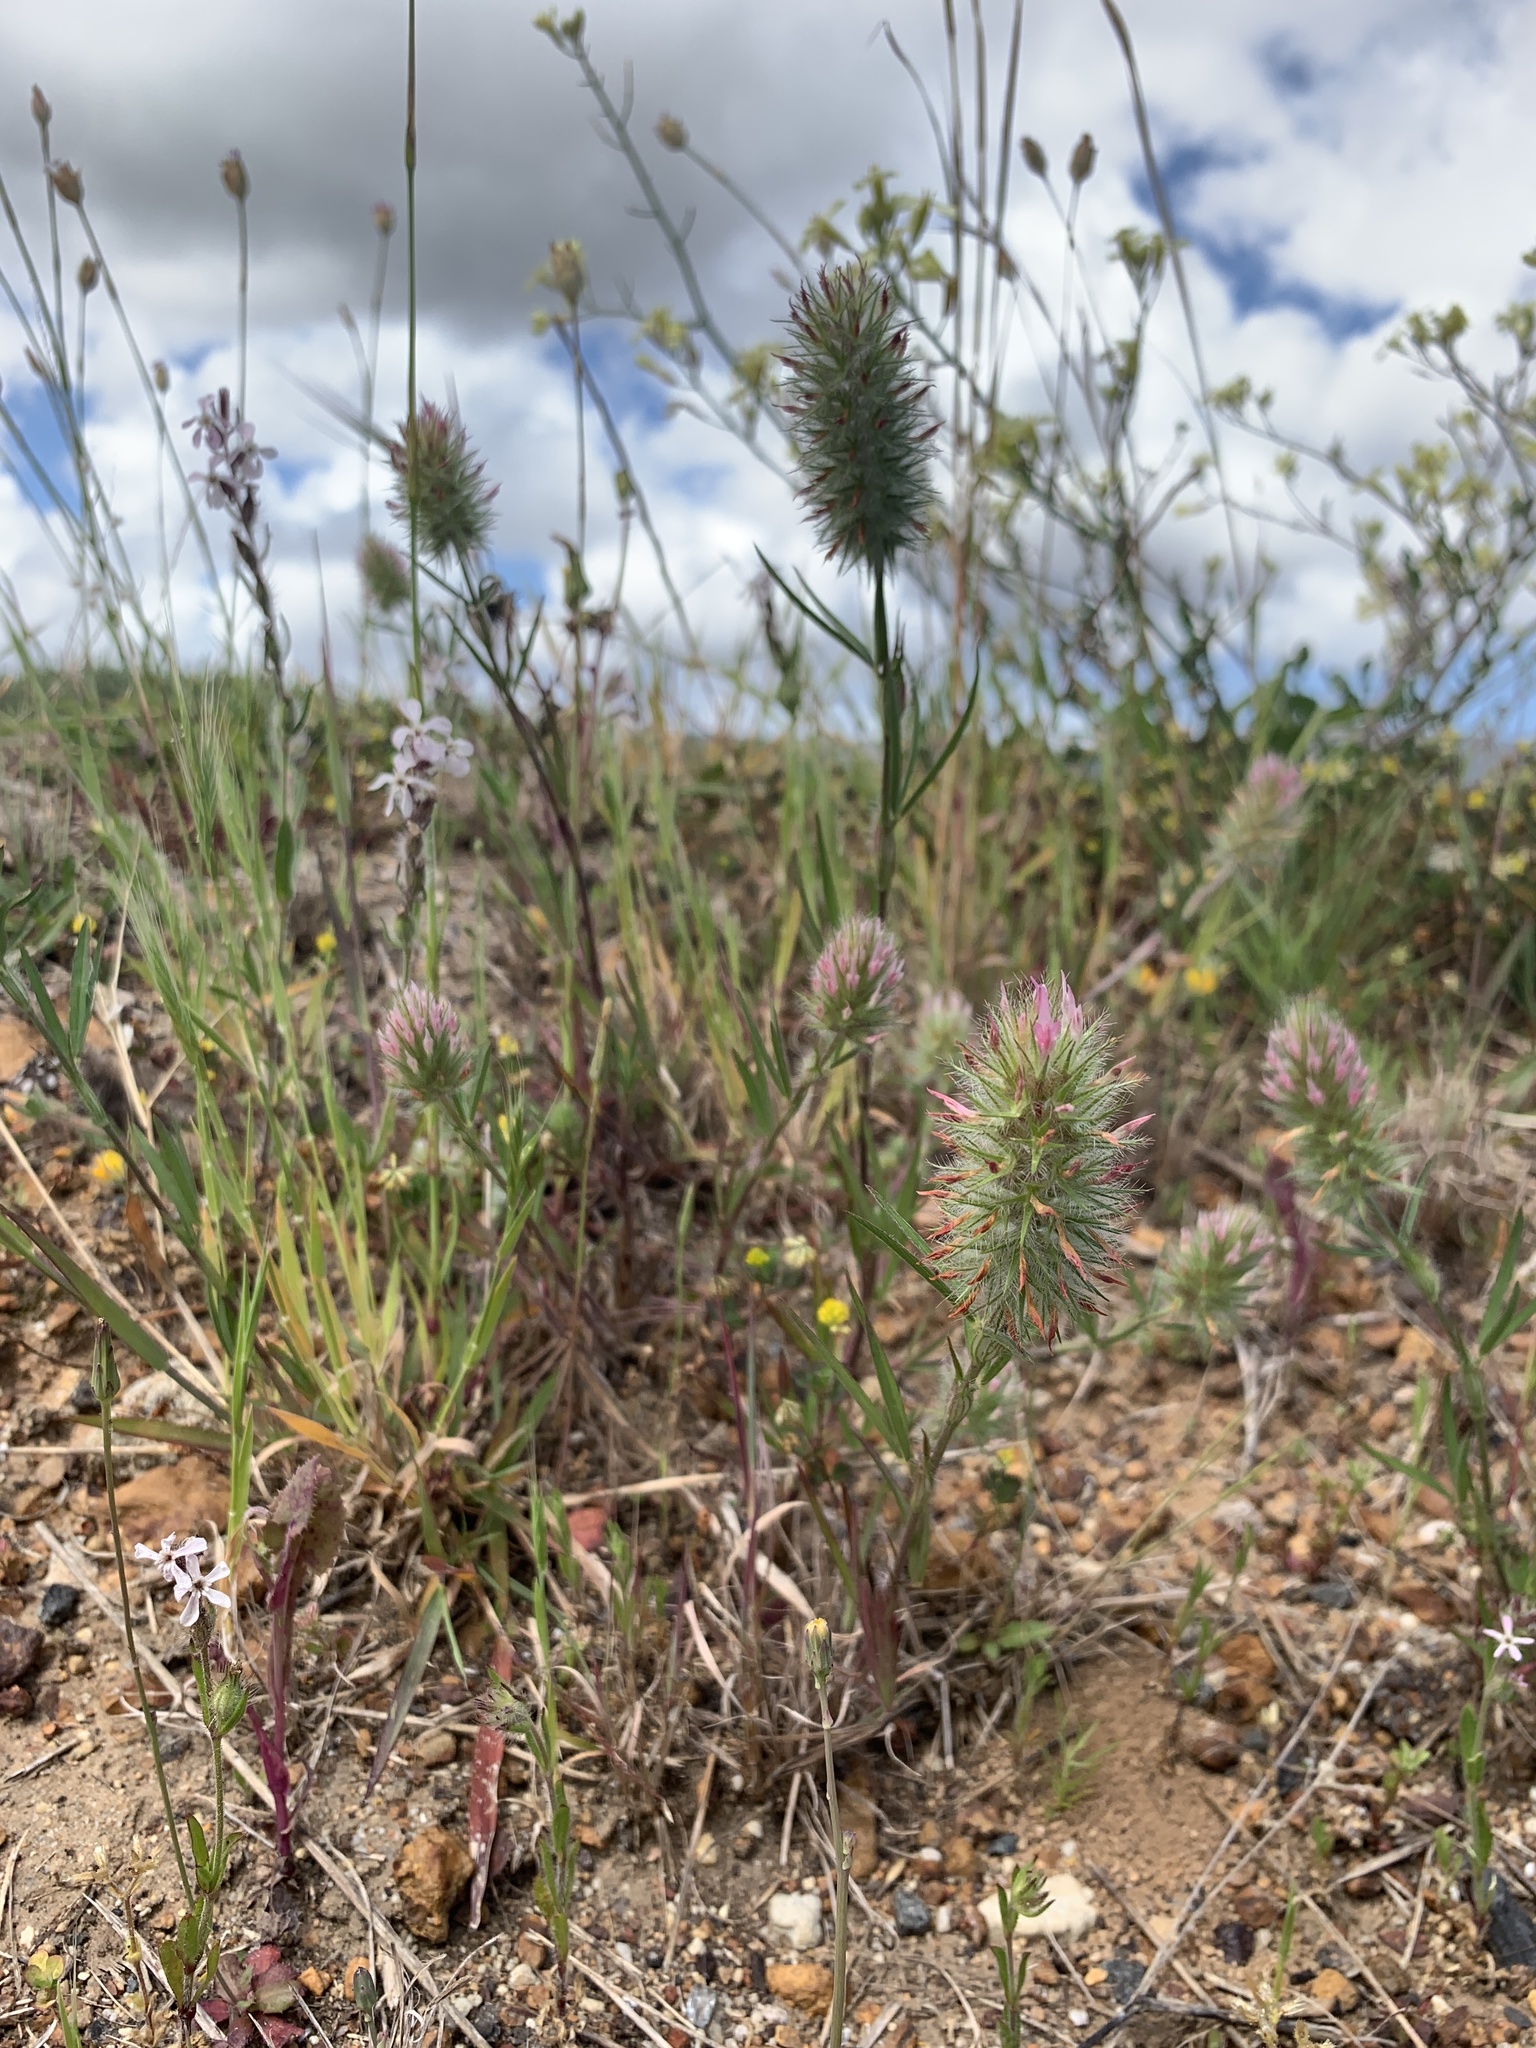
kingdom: Plantae
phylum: Tracheophyta
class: Magnoliopsida
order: Fabales
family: Fabaceae
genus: Trifolium
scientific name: Trifolium angustifolium
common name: Narrow clover
